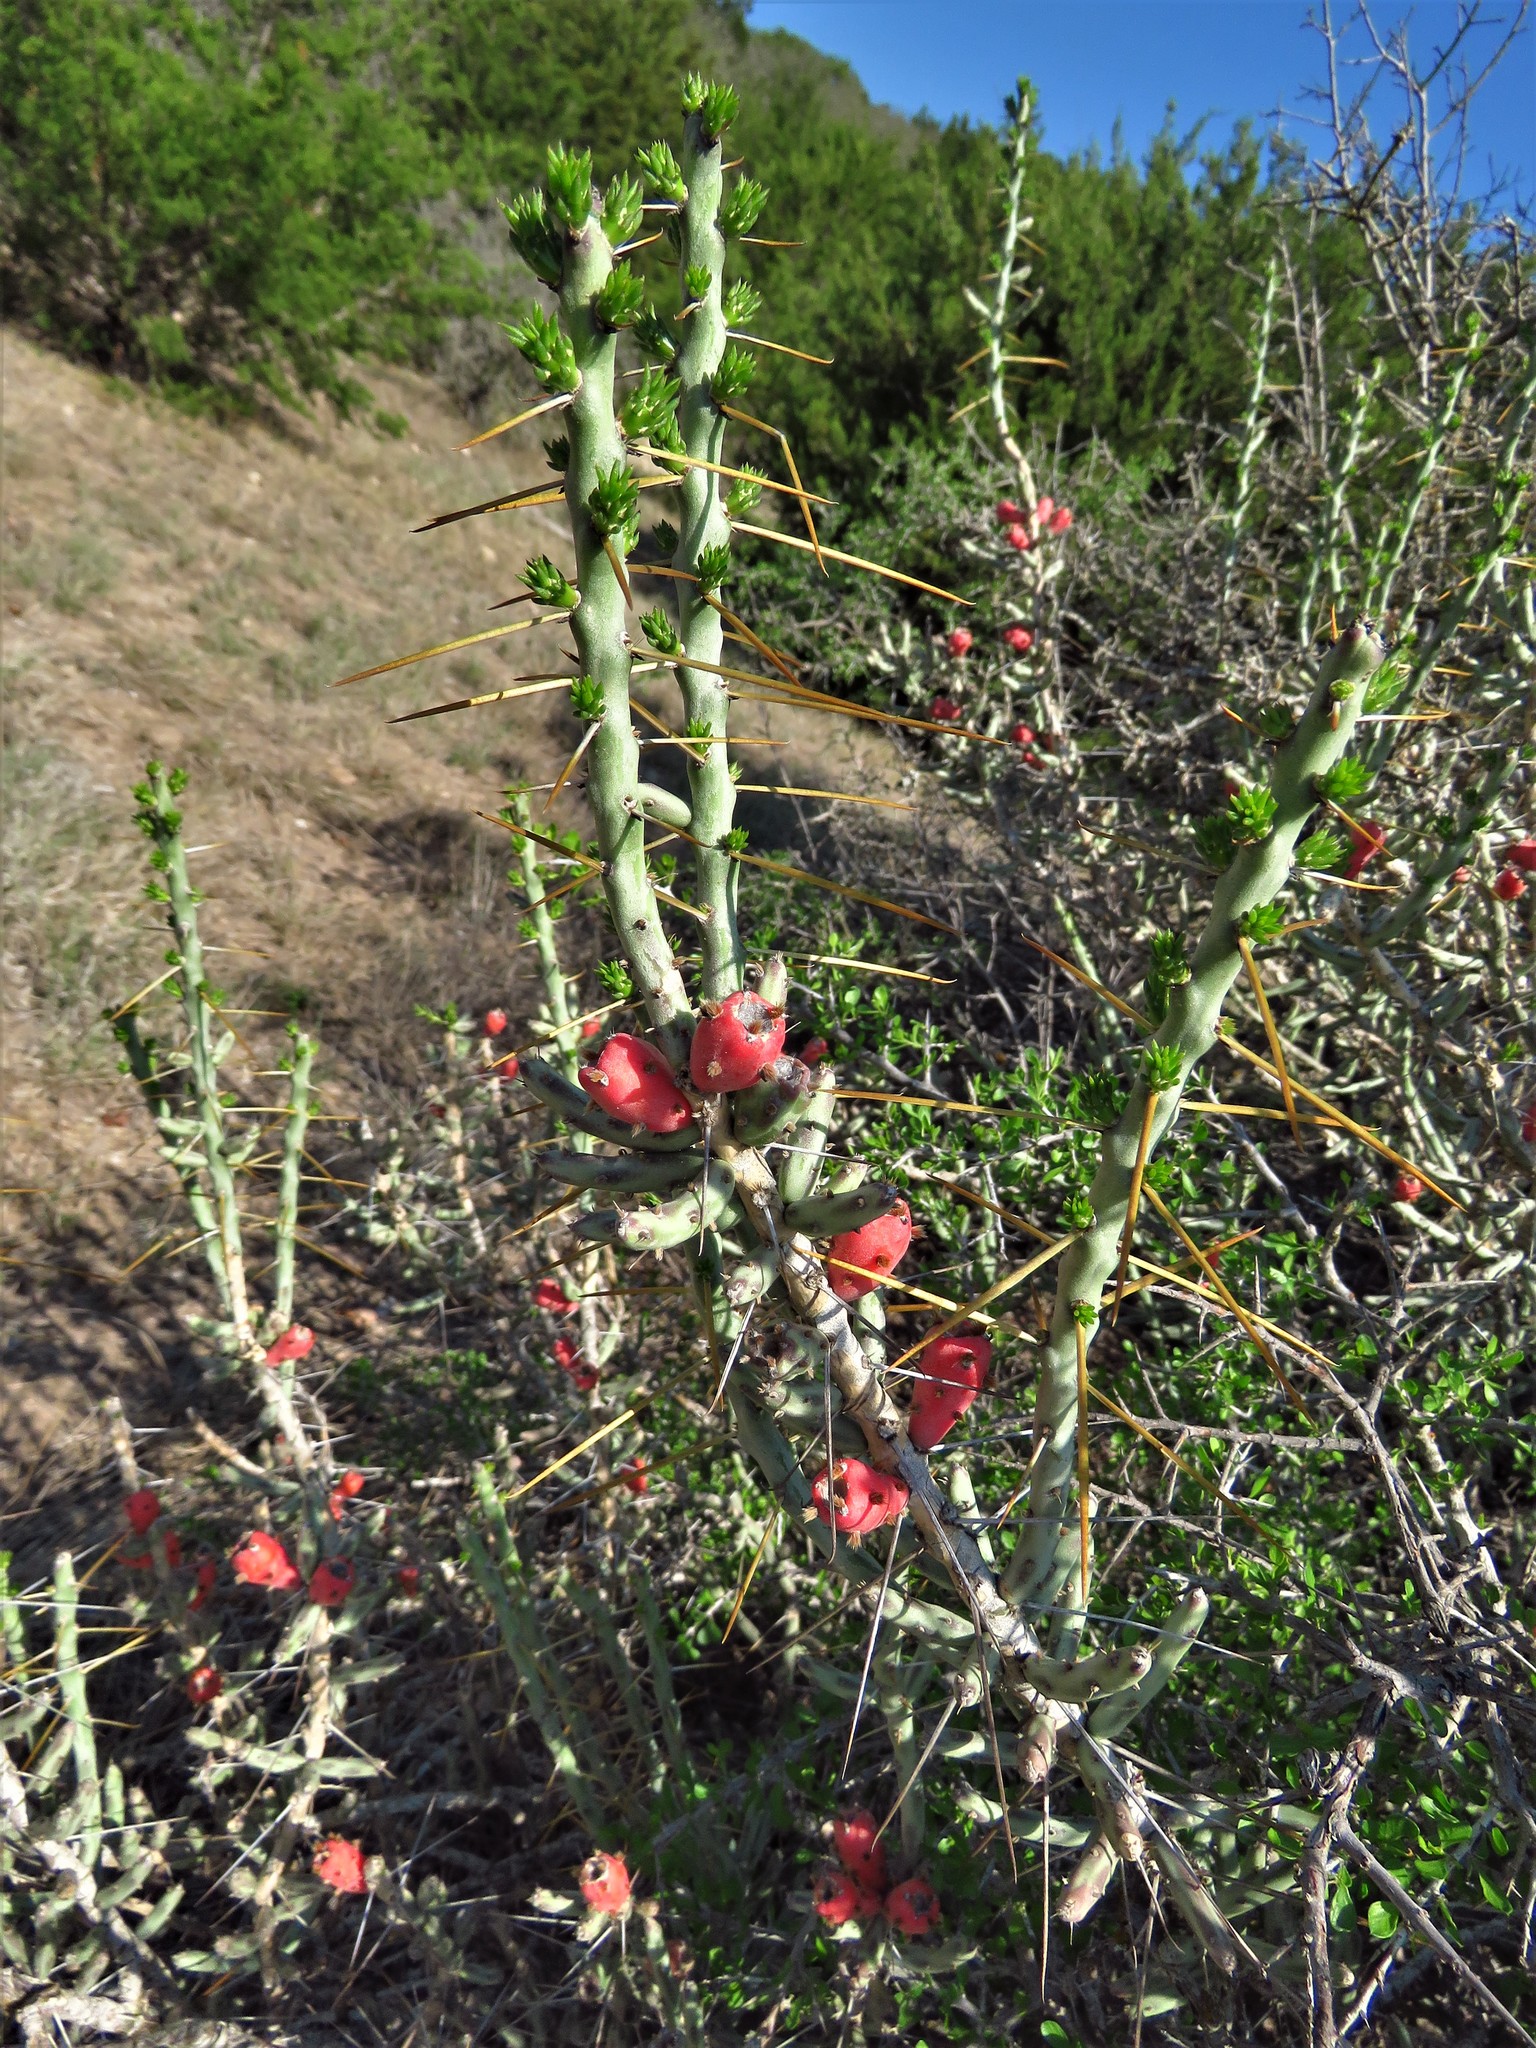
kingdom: Plantae
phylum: Tracheophyta
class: Magnoliopsida
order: Caryophyllales
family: Cactaceae
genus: Cylindropuntia
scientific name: Cylindropuntia leptocaulis
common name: Christmas cactus
